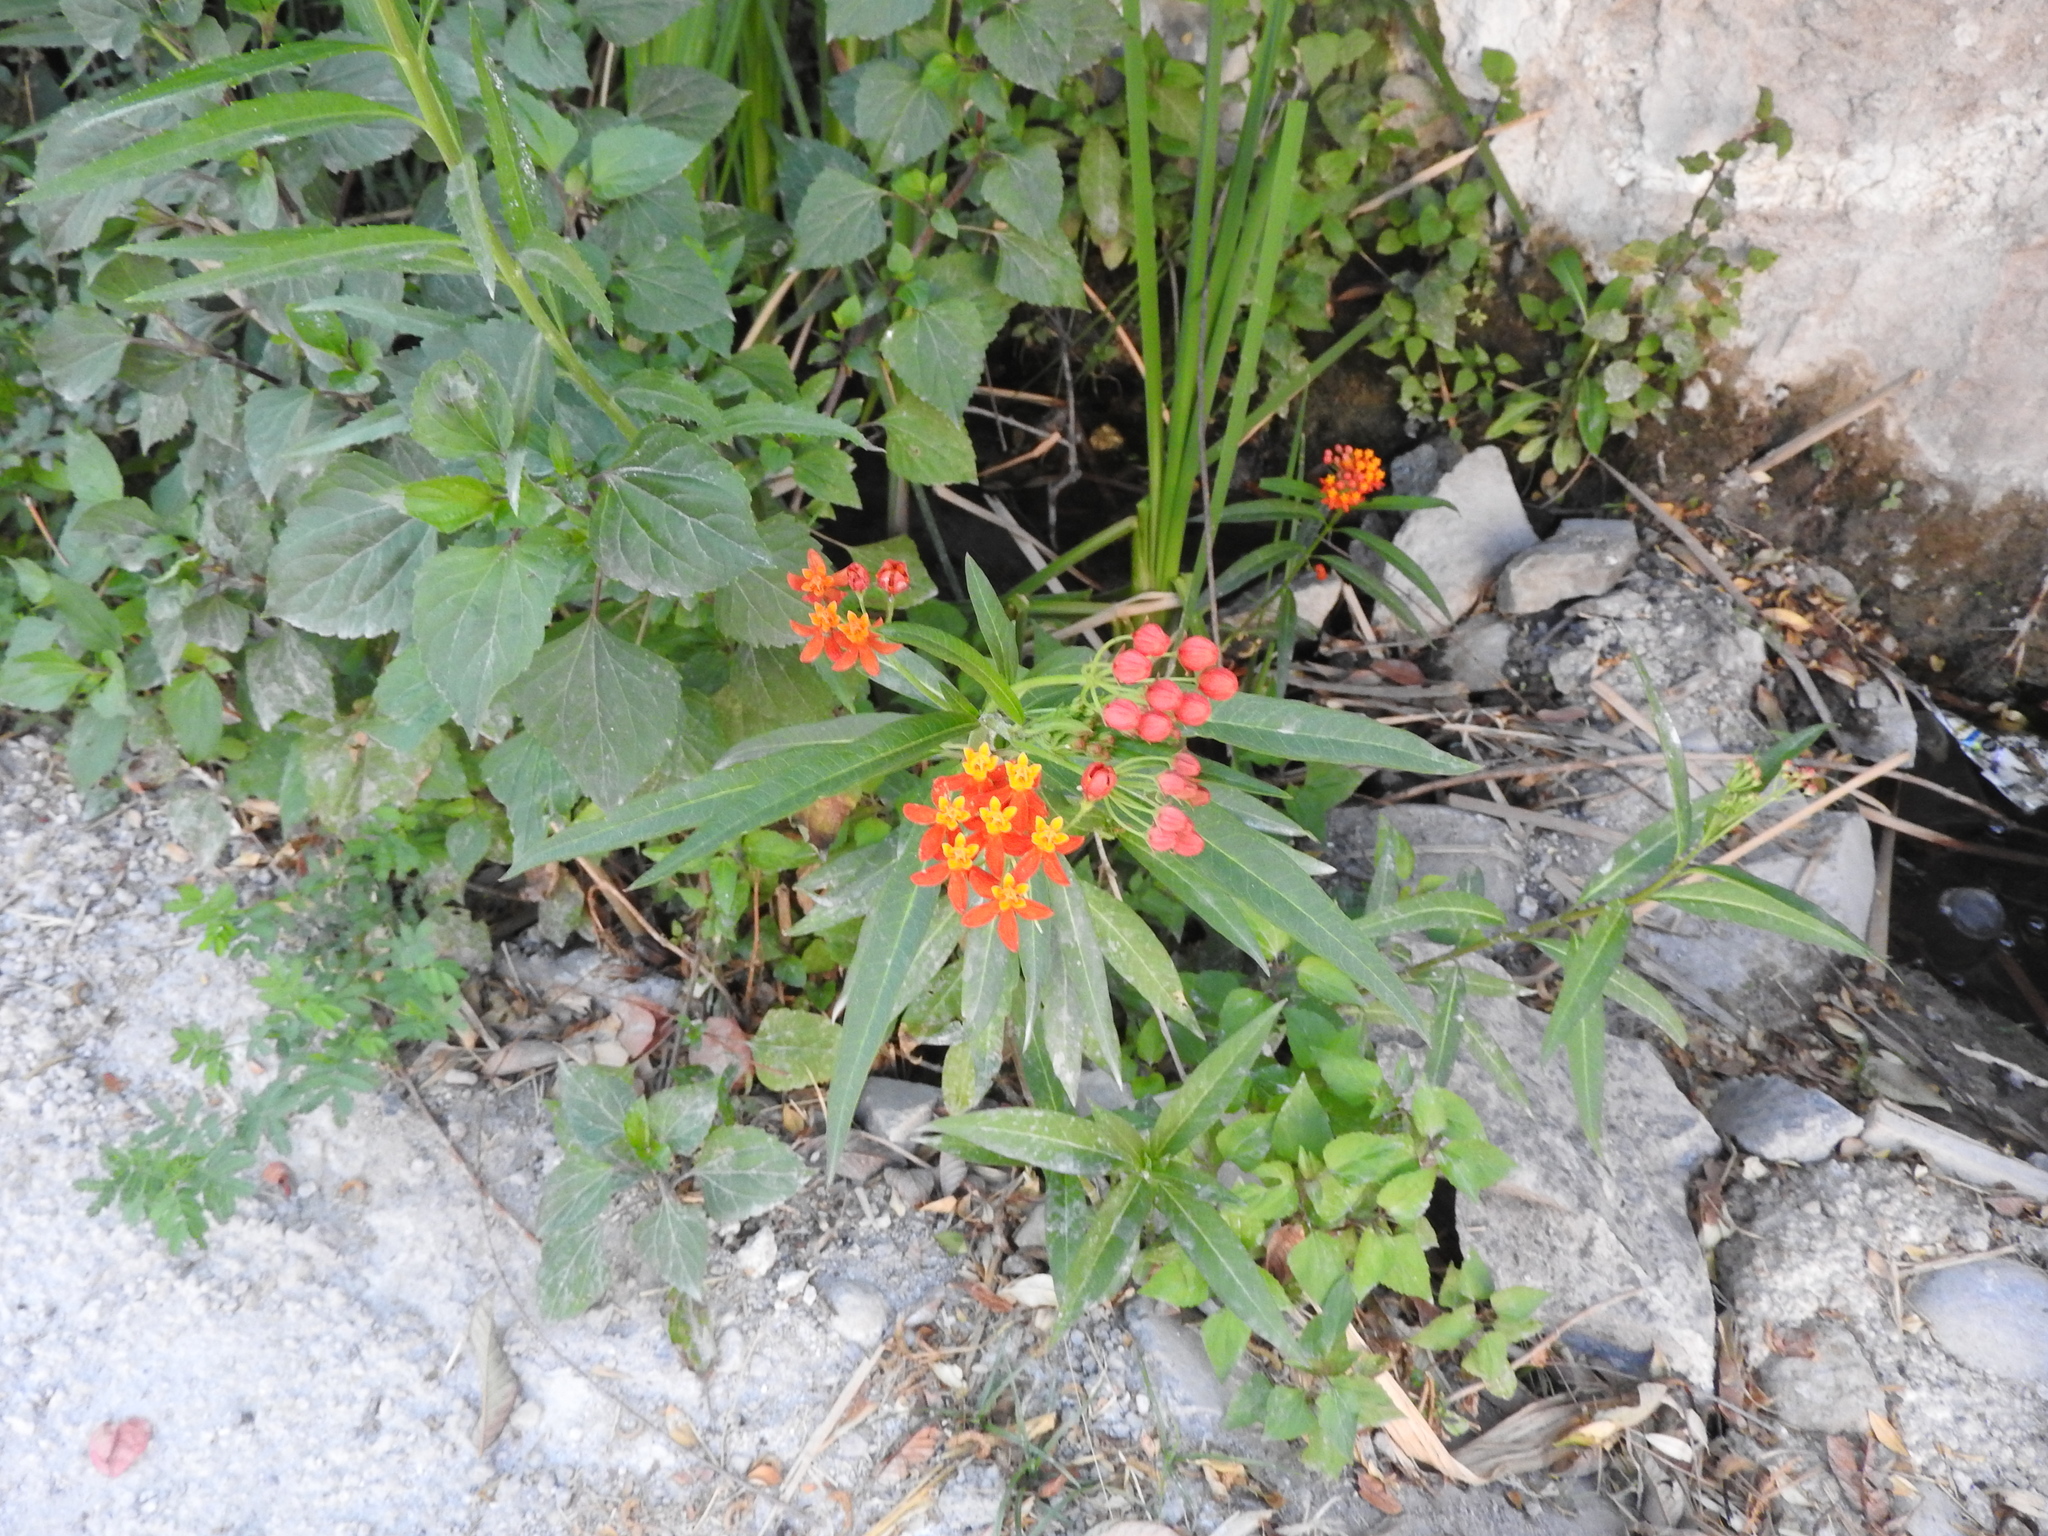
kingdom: Plantae
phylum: Tracheophyta
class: Magnoliopsida
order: Gentianales
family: Apocynaceae
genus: Asclepias
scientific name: Asclepias curassavica
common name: Bloodflower
